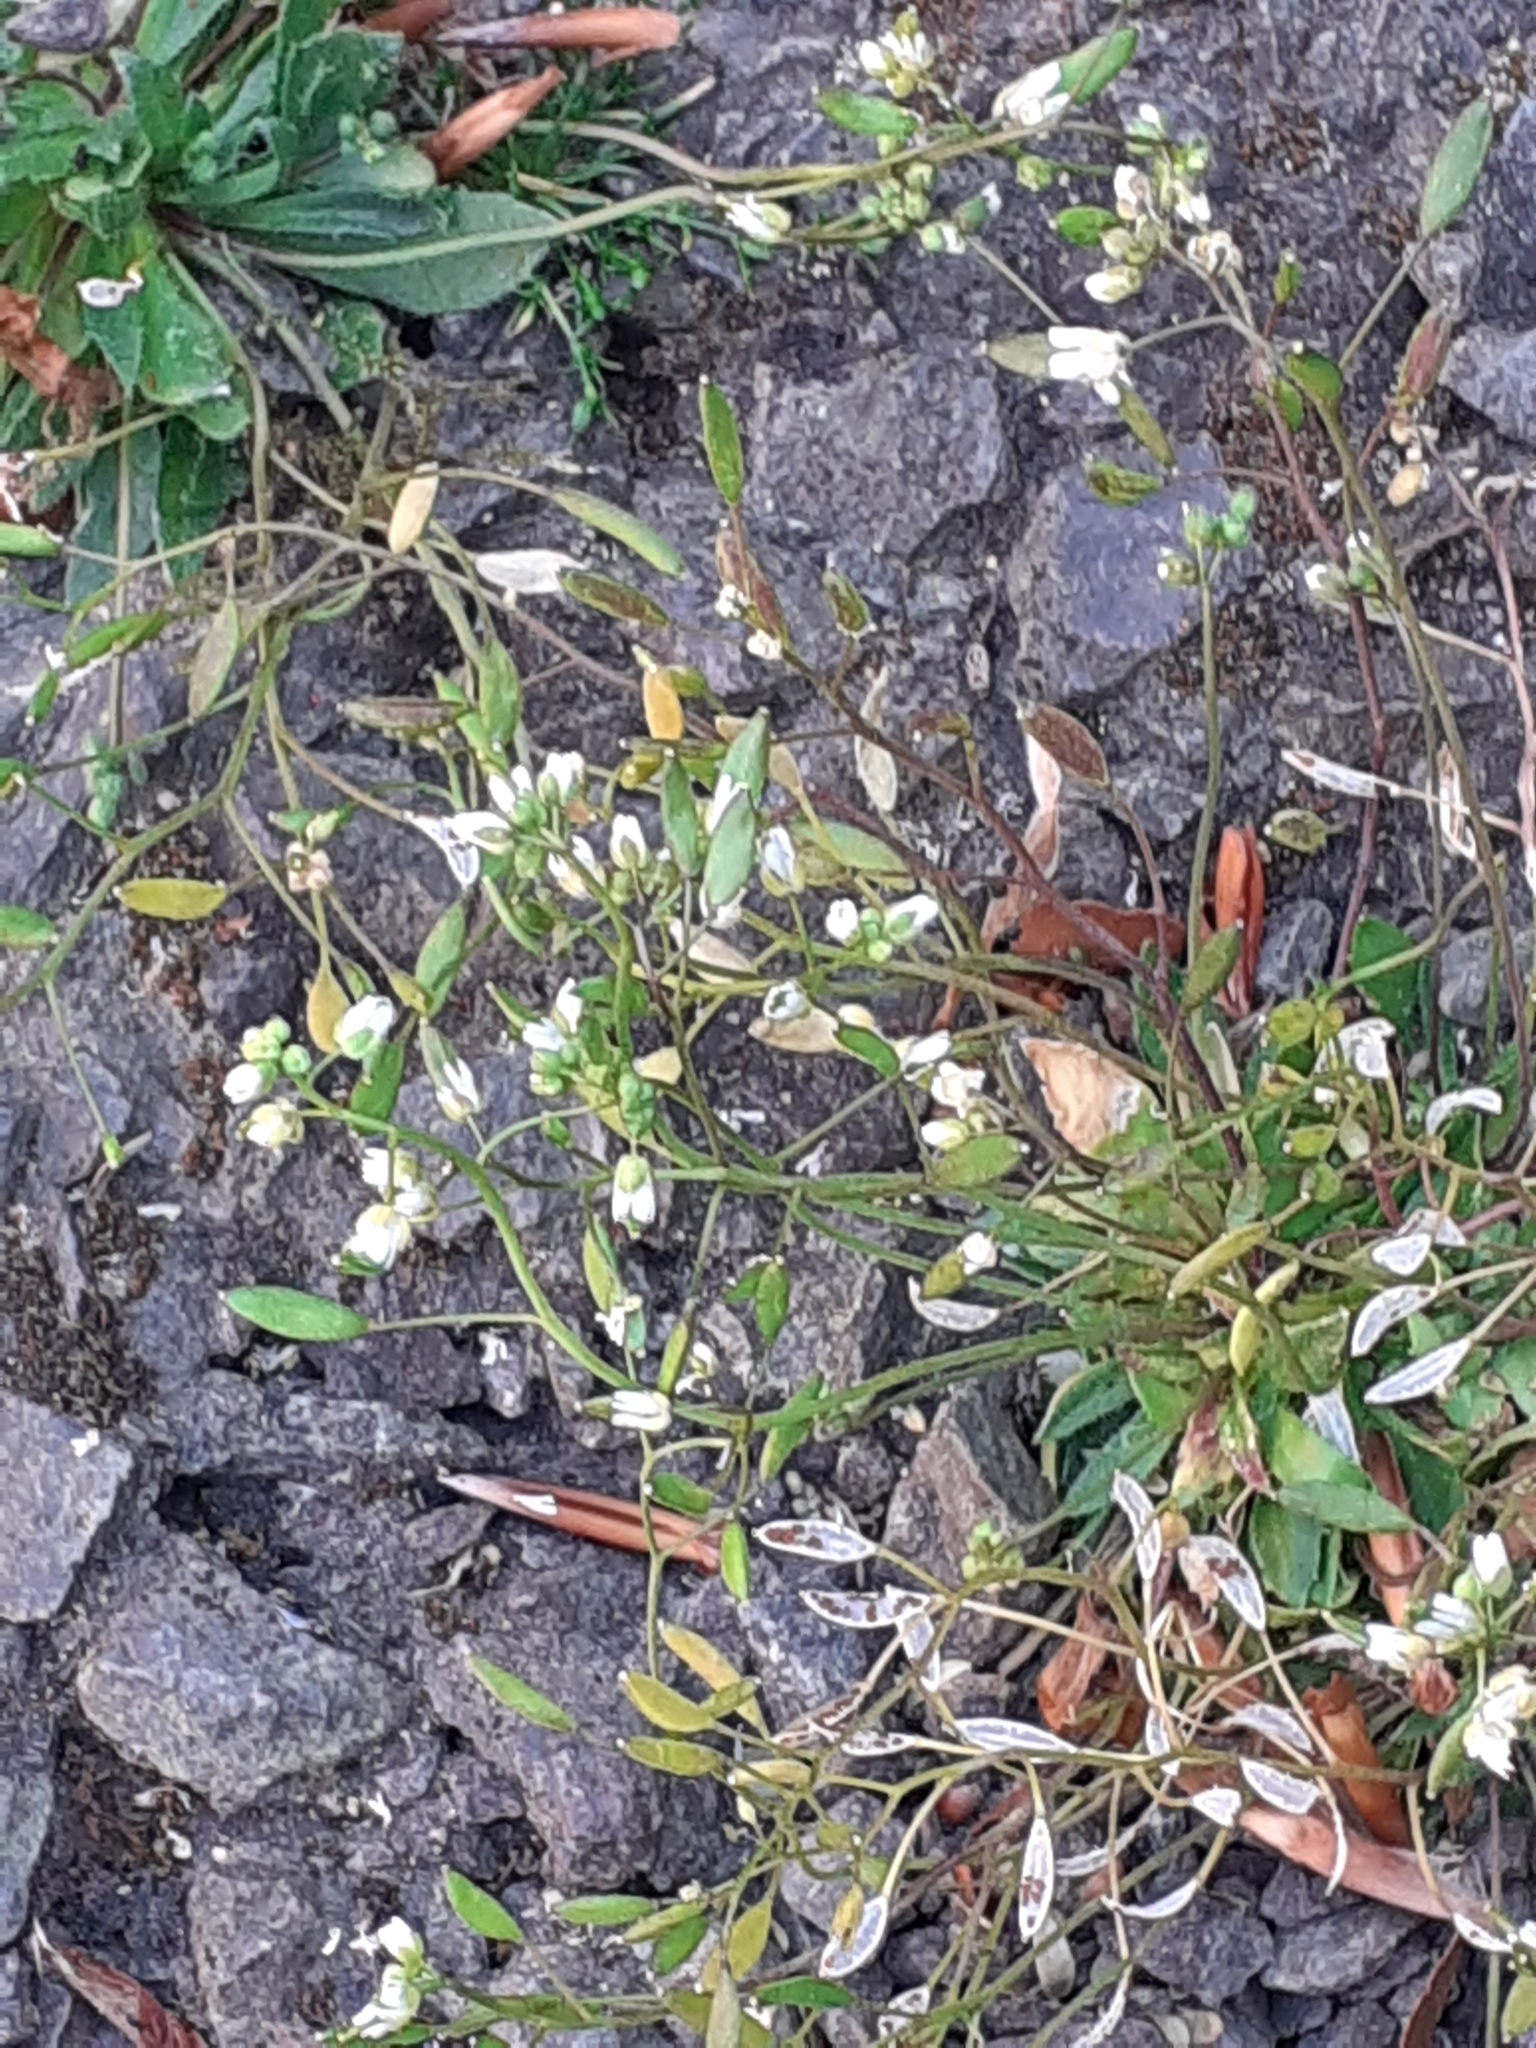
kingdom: Plantae
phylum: Tracheophyta
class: Magnoliopsida
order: Brassicales
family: Brassicaceae
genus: Draba
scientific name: Draba verna
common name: Spring draba
